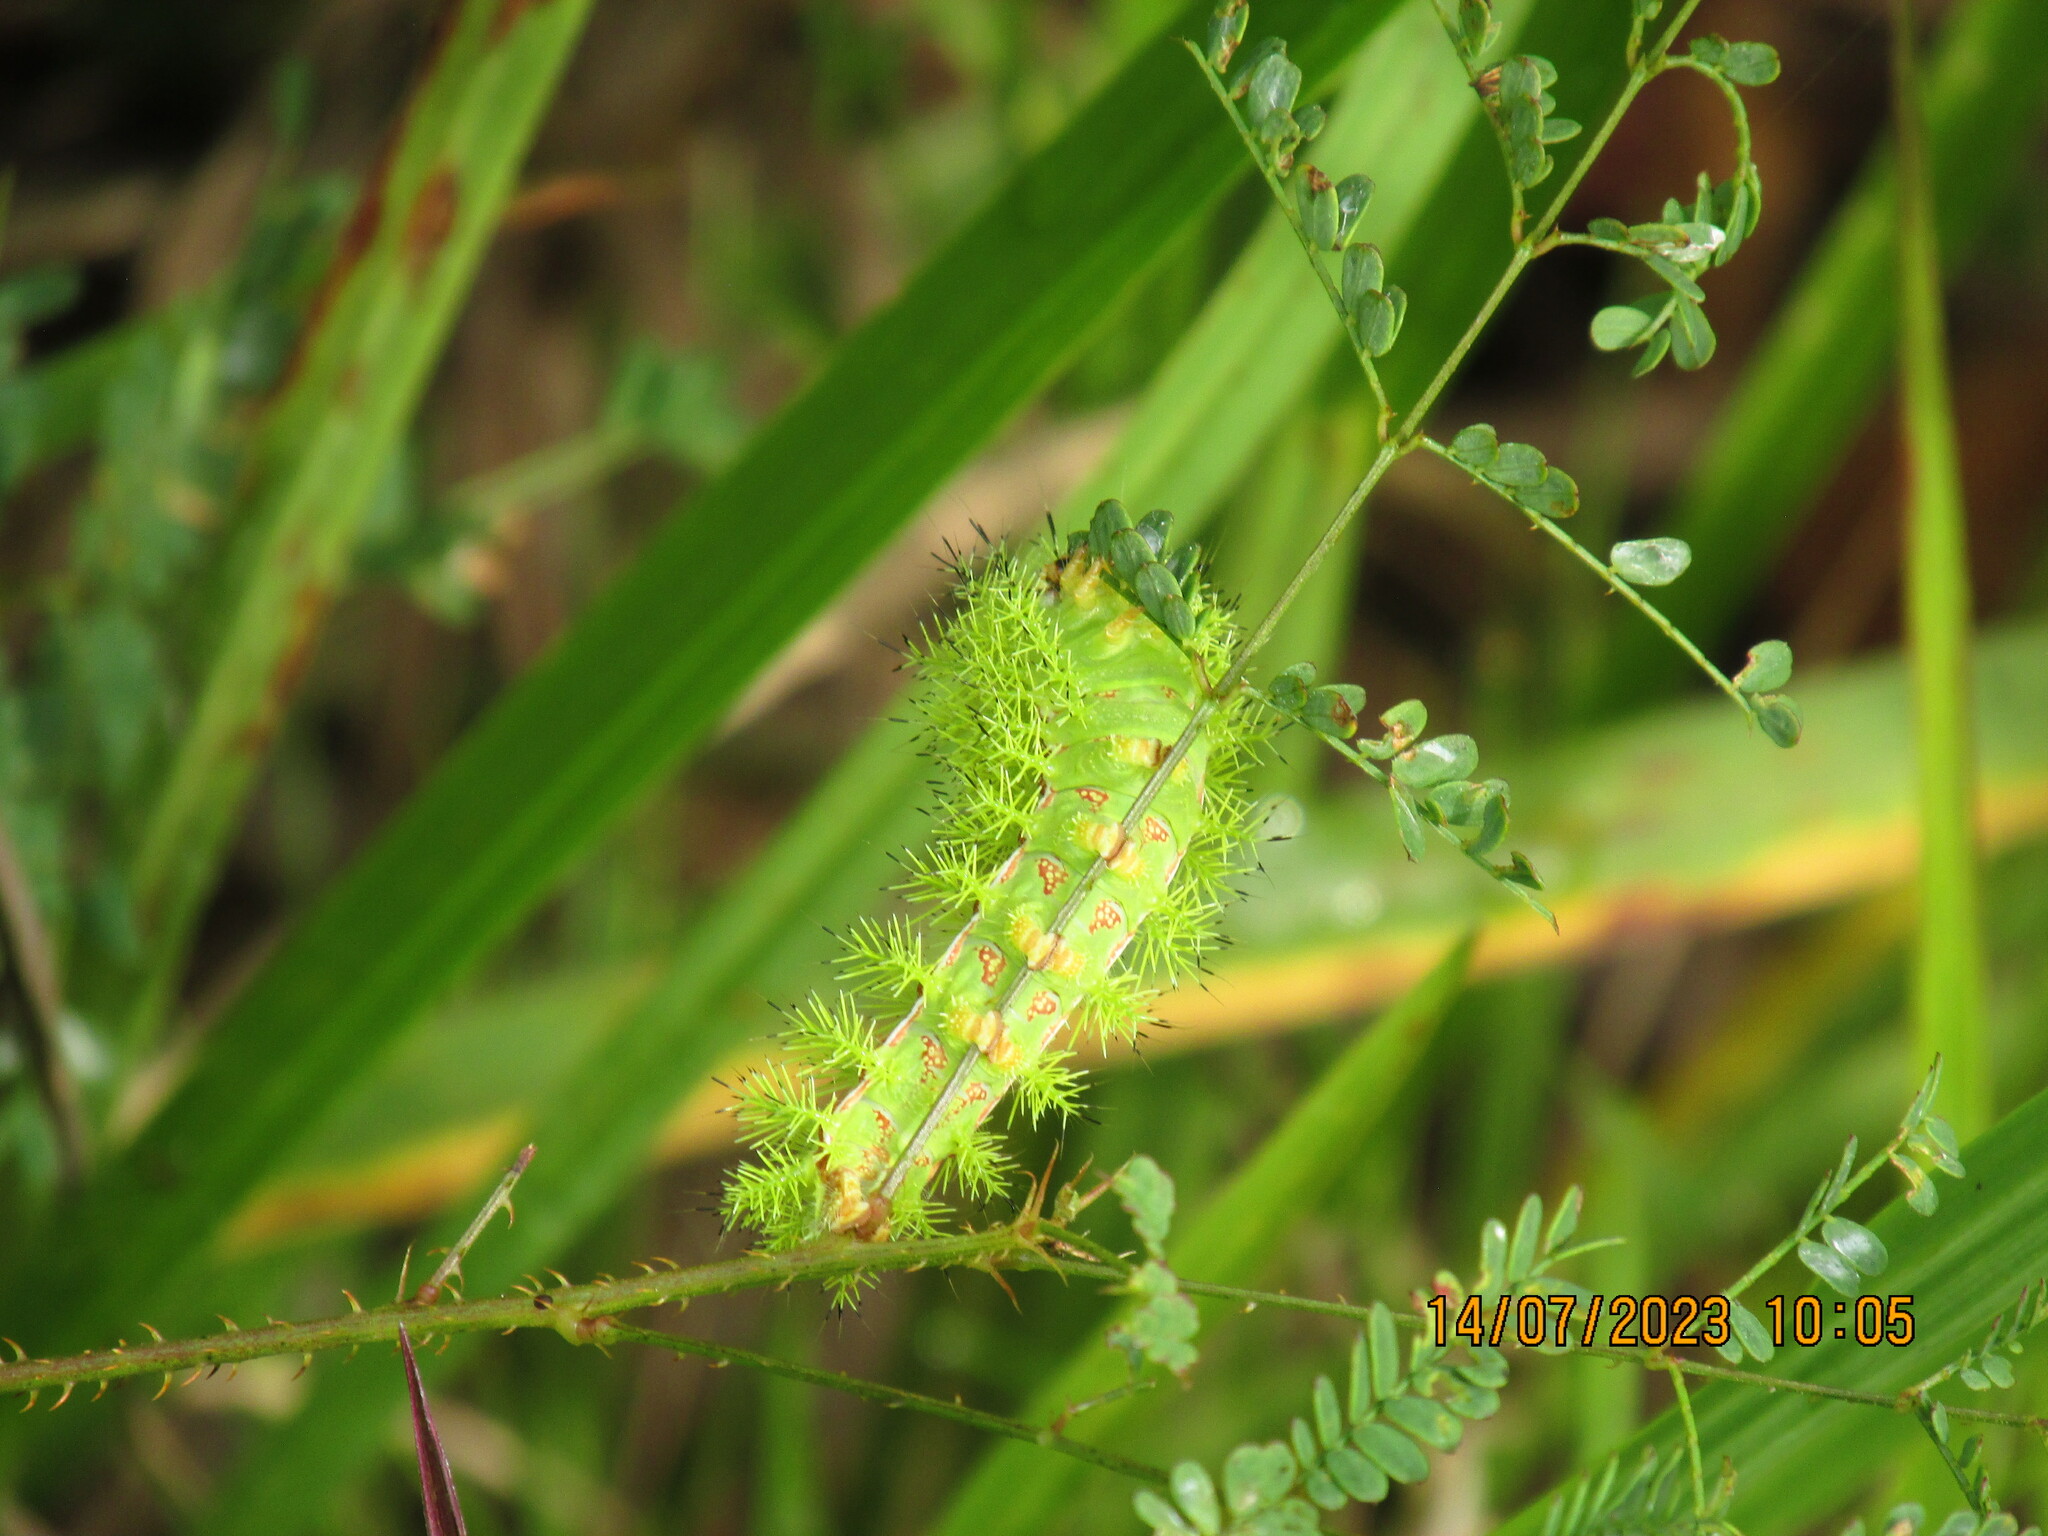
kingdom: Animalia
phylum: Arthropoda
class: Insecta
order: Lepidoptera
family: Saturniidae
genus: Automeris
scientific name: Automeris io
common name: Io moth
